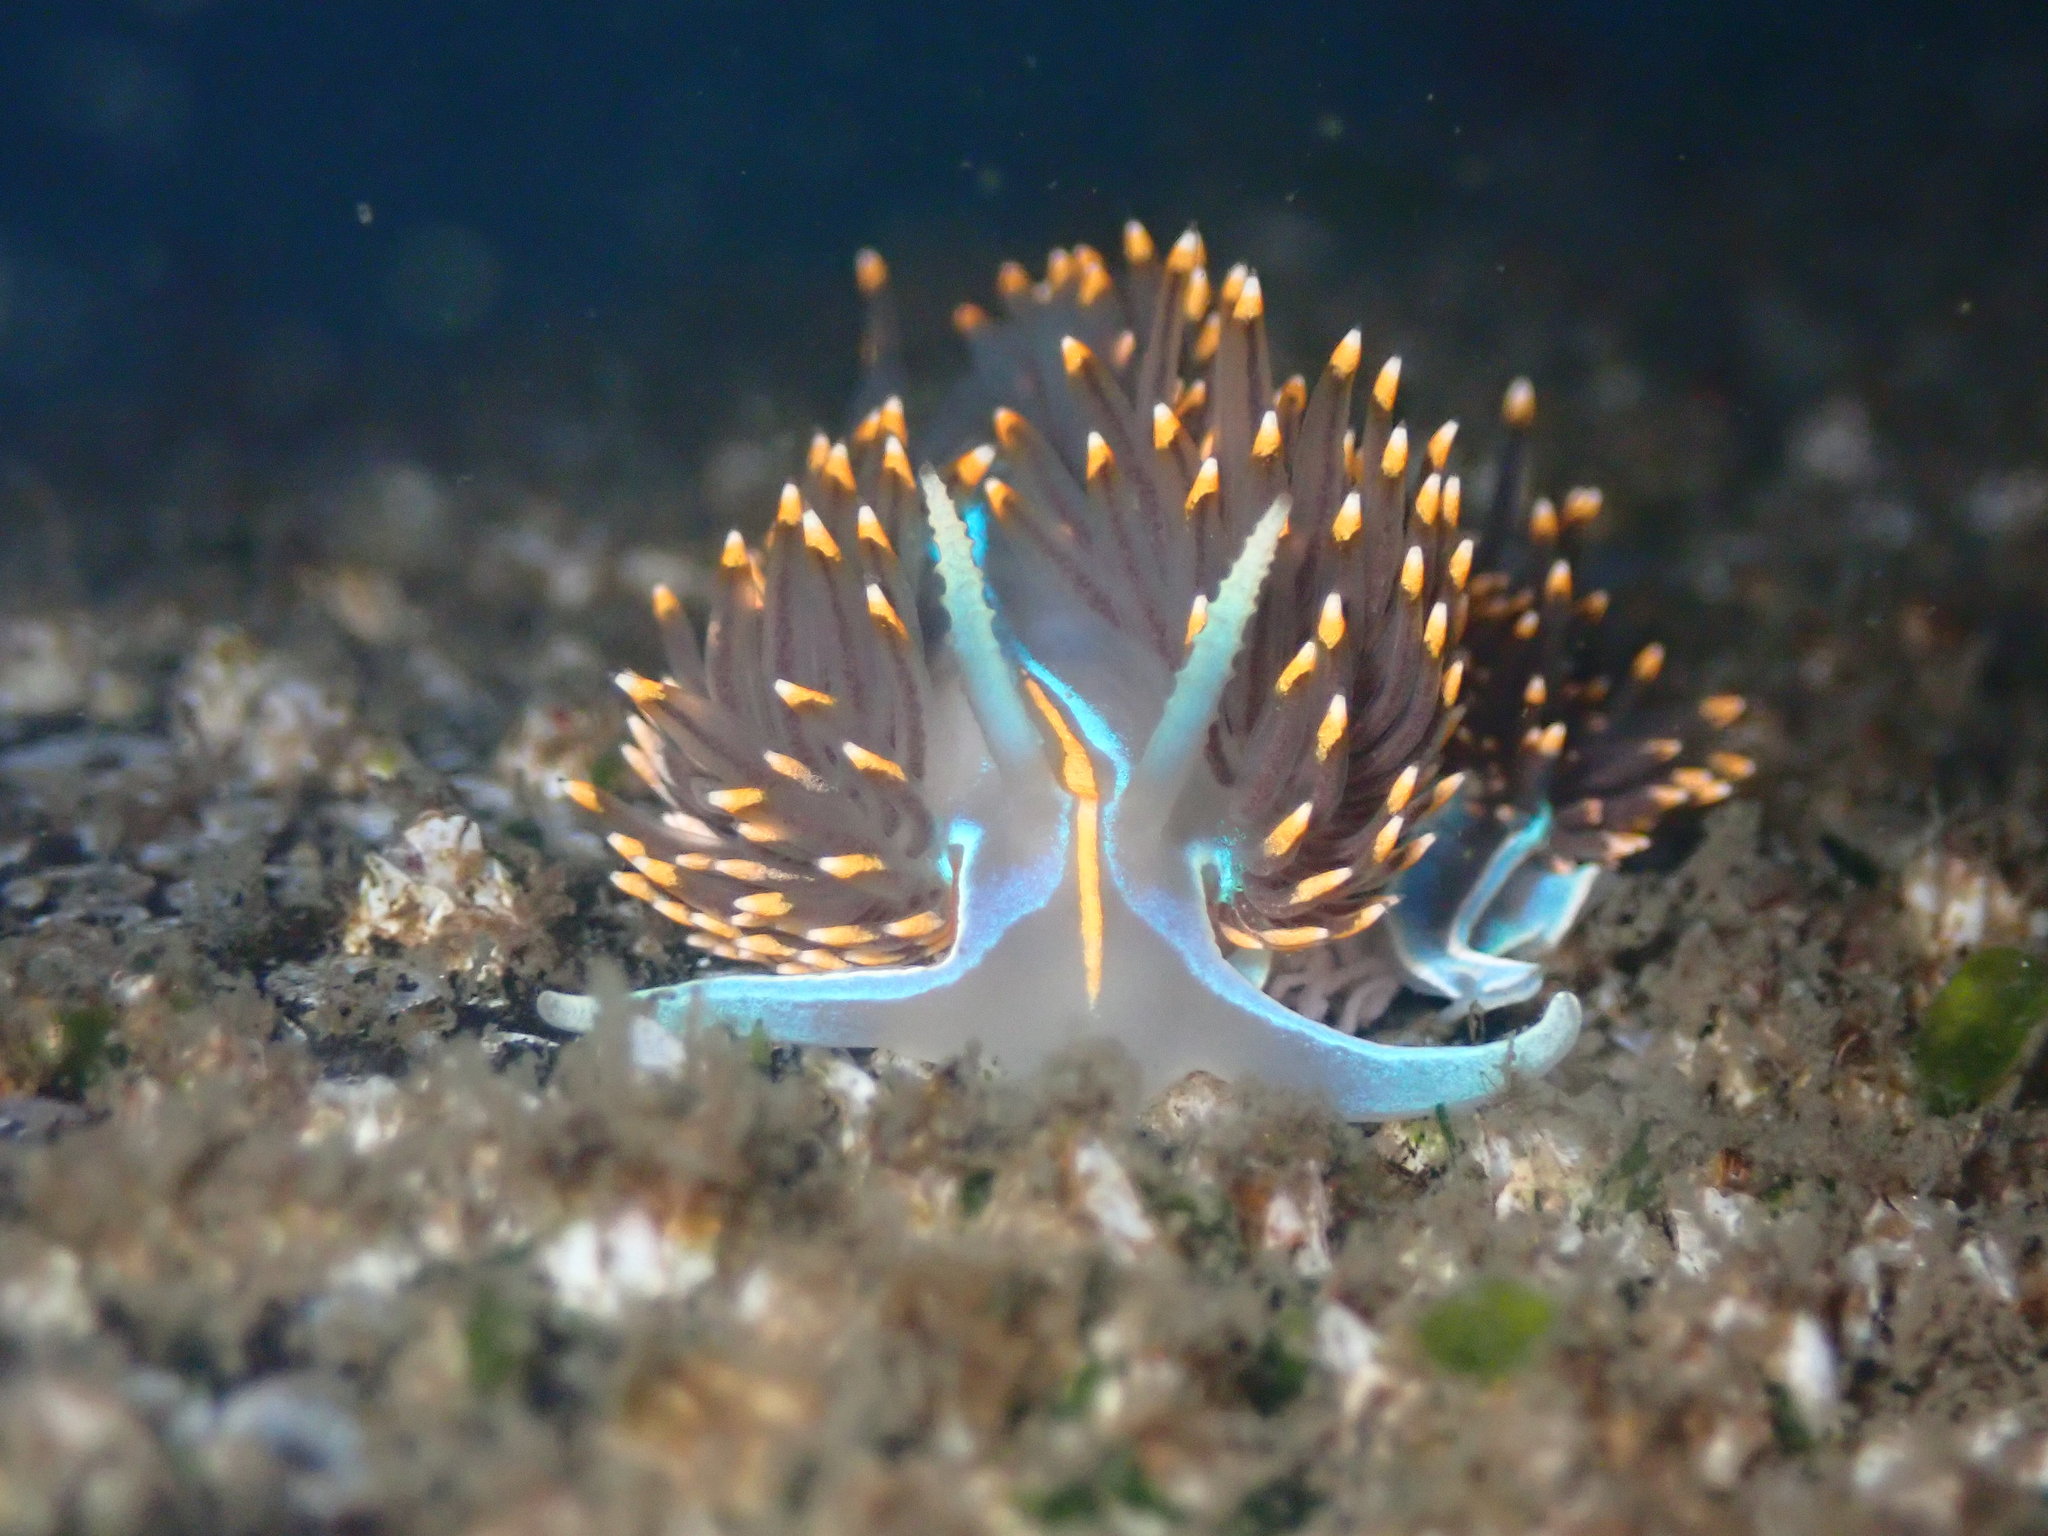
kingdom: Animalia
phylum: Mollusca
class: Gastropoda
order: Nudibranchia
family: Myrrhinidae
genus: Hermissenda
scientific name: Hermissenda opalescens
